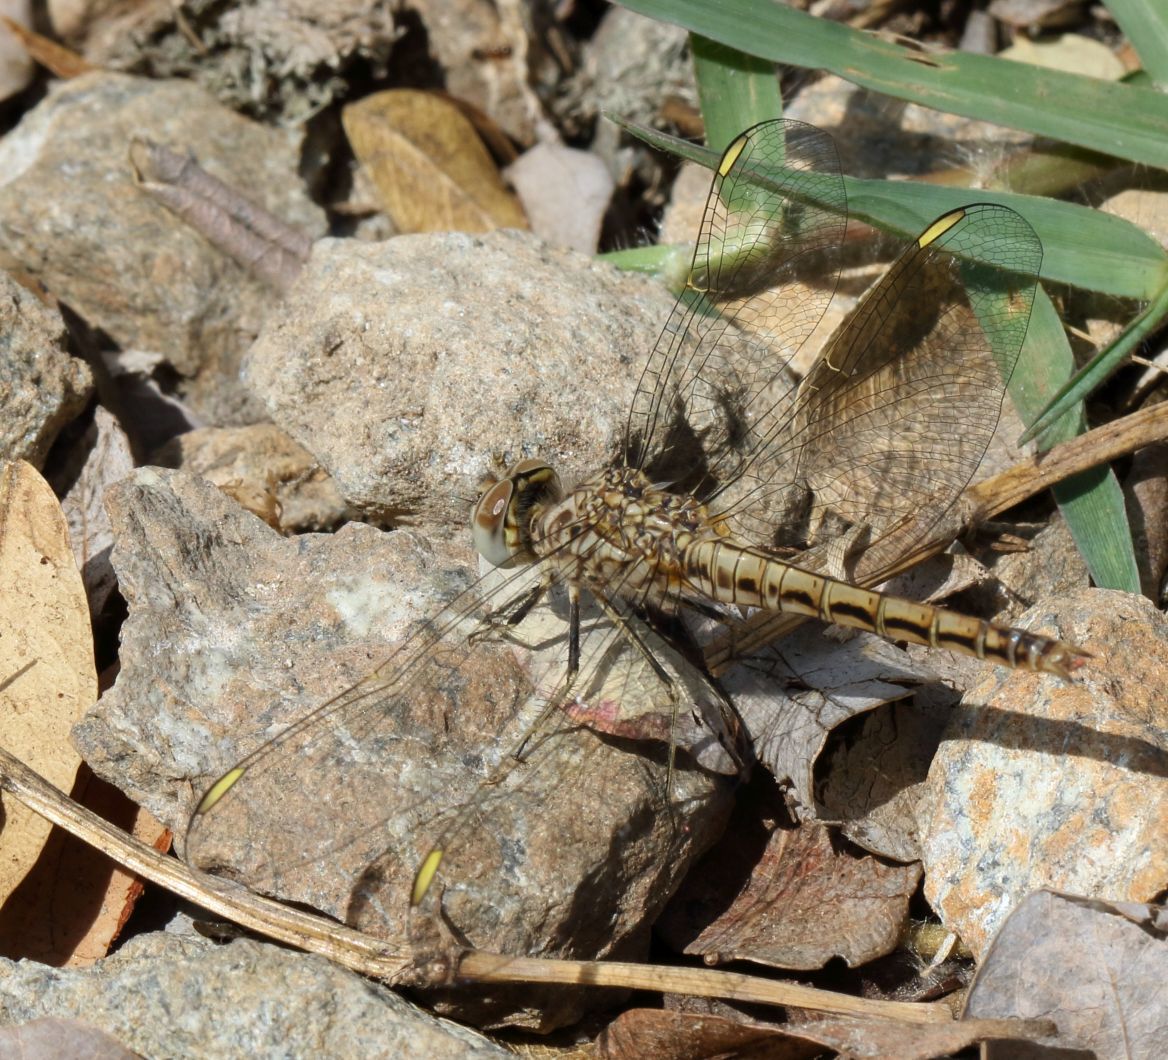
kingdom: Animalia
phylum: Arthropoda
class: Insecta
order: Odonata
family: Libellulidae
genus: Brachythemis
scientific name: Brachythemis leucosticta
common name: Banded groundling
